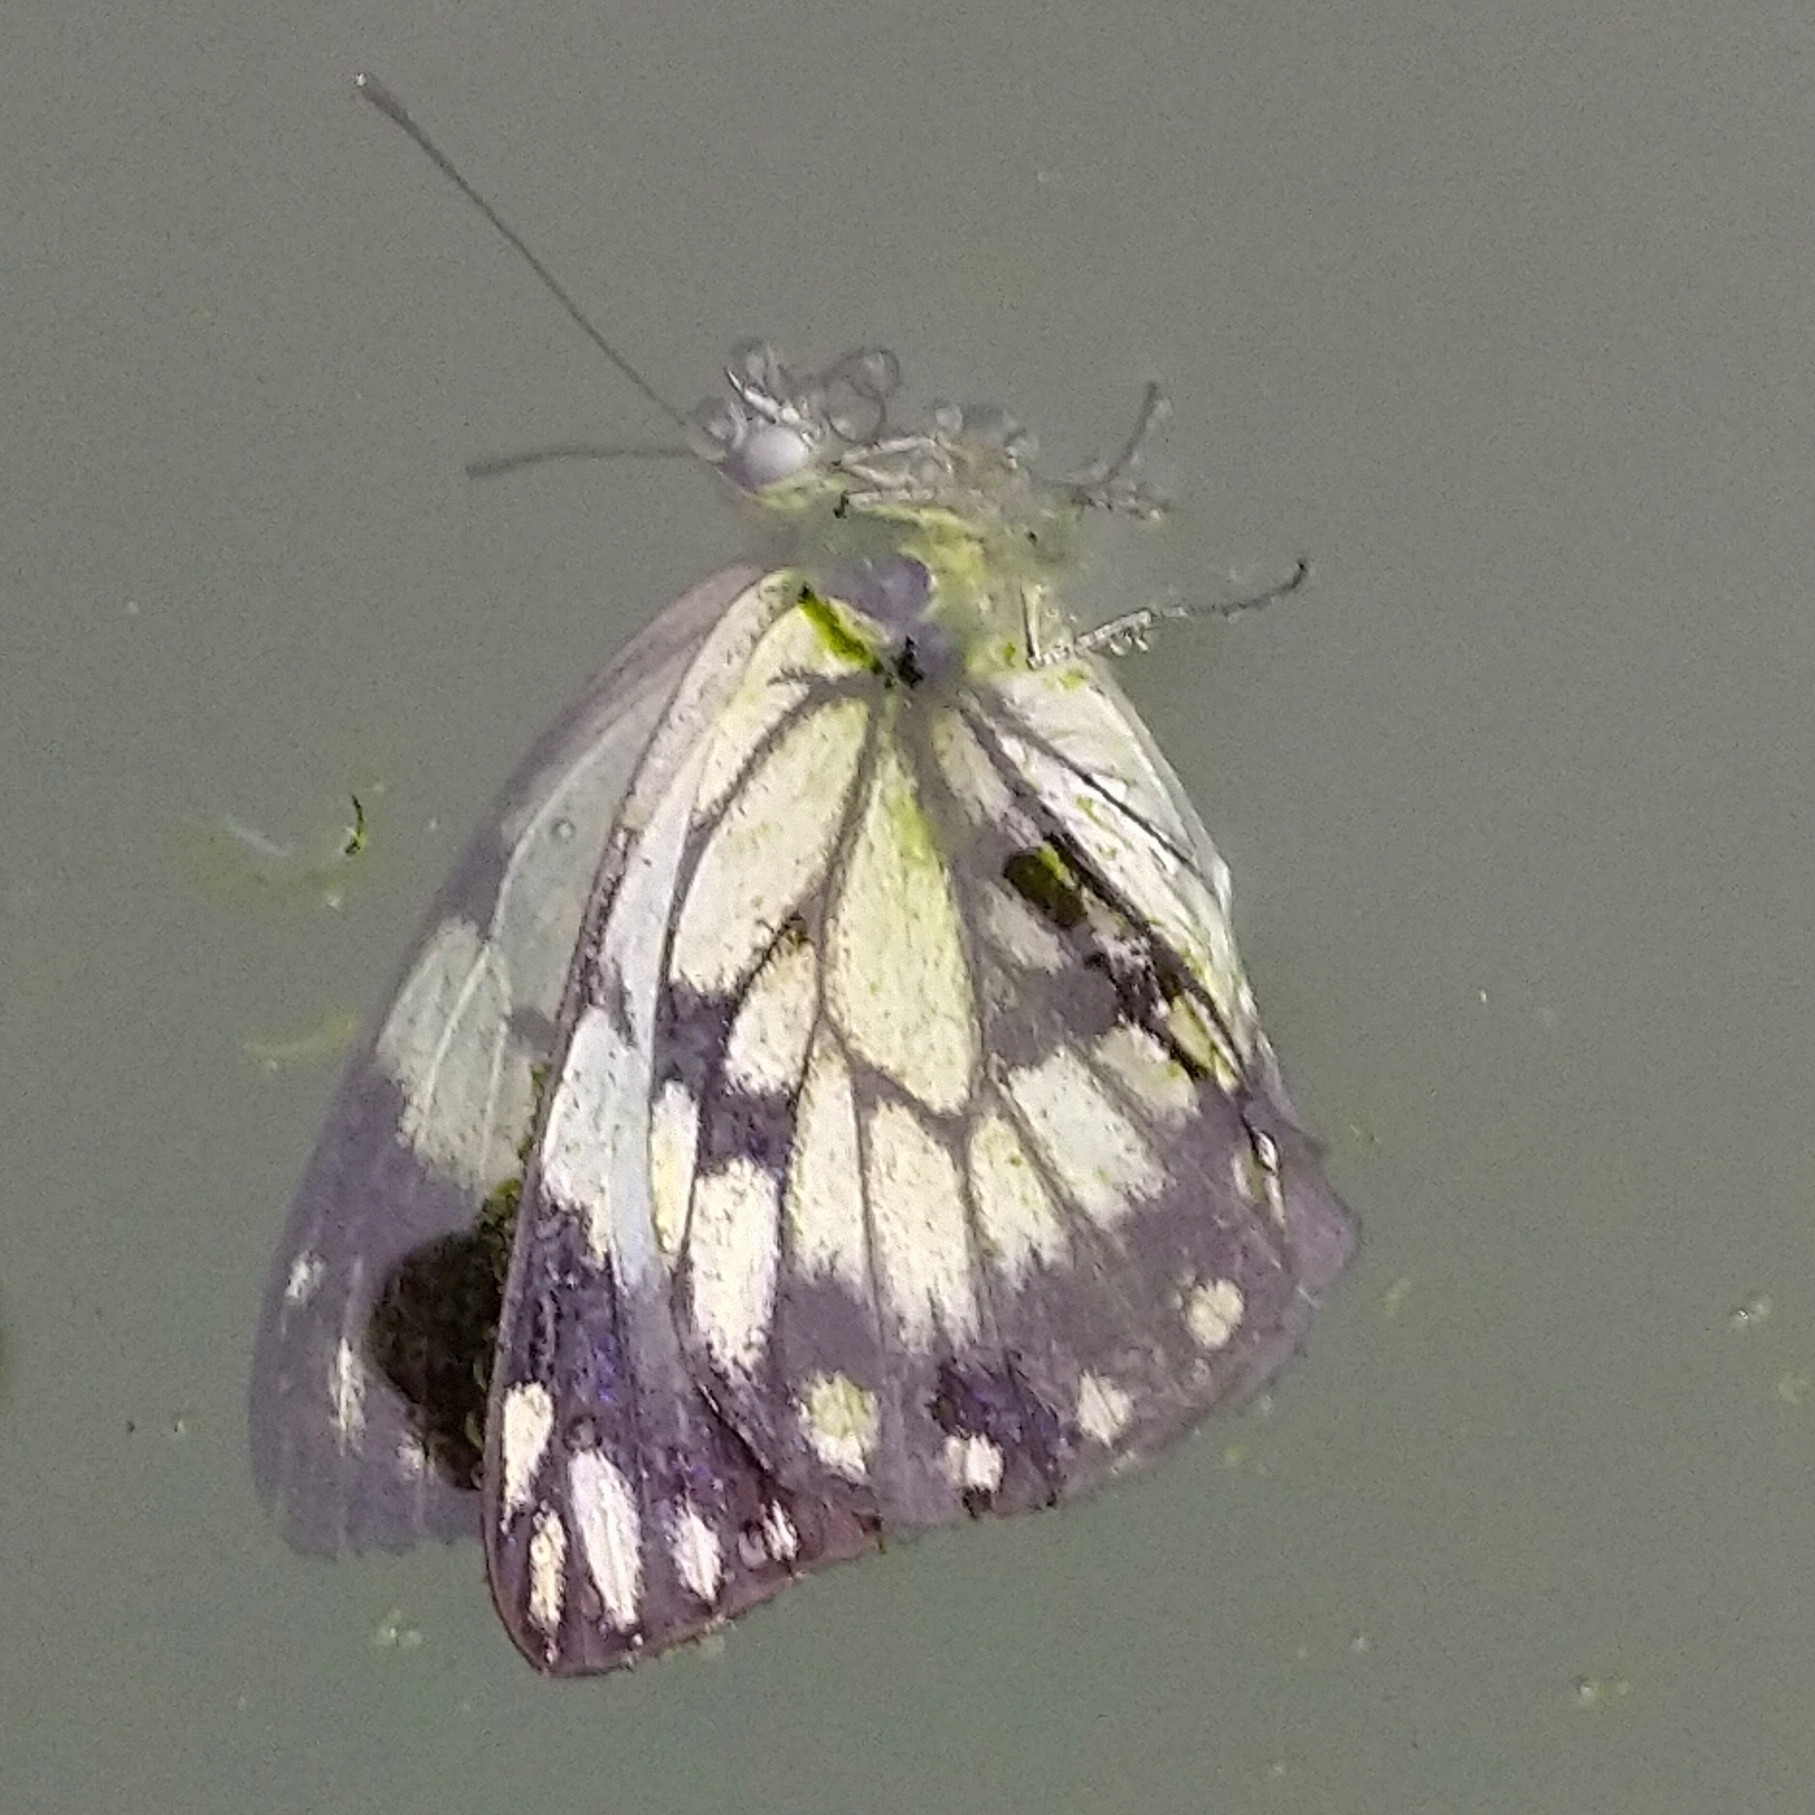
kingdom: Animalia
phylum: Arthropoda
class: Insecta
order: Lepidoptera
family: Pieridae
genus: Belenois
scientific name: Belenois creona
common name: African caper white
